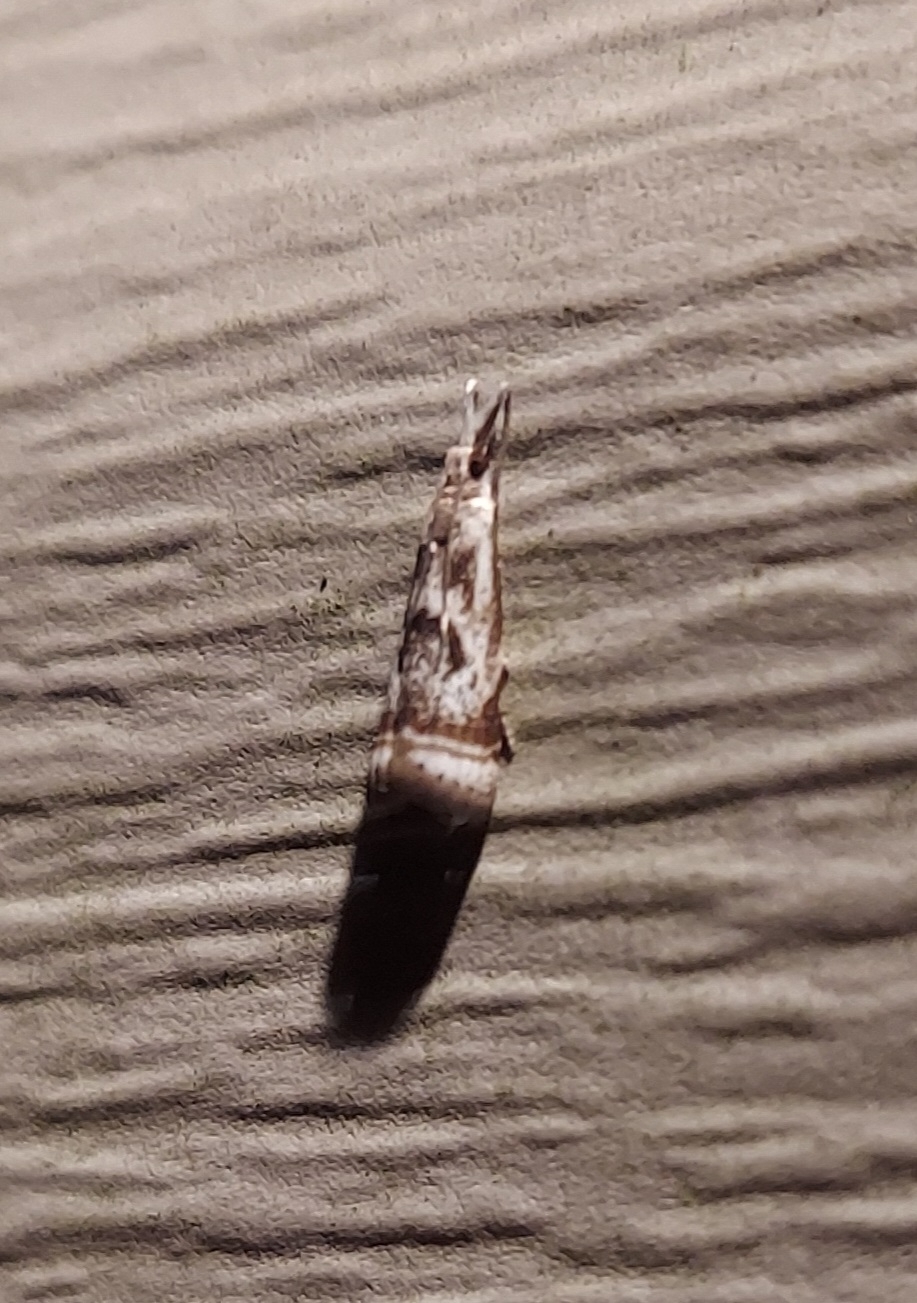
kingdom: Animalia
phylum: Arthropoda
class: Insecta
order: Lepidoptera
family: Crambidae
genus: Microcrambus
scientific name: Microcrambus elegans
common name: Elegant grass-veneer
